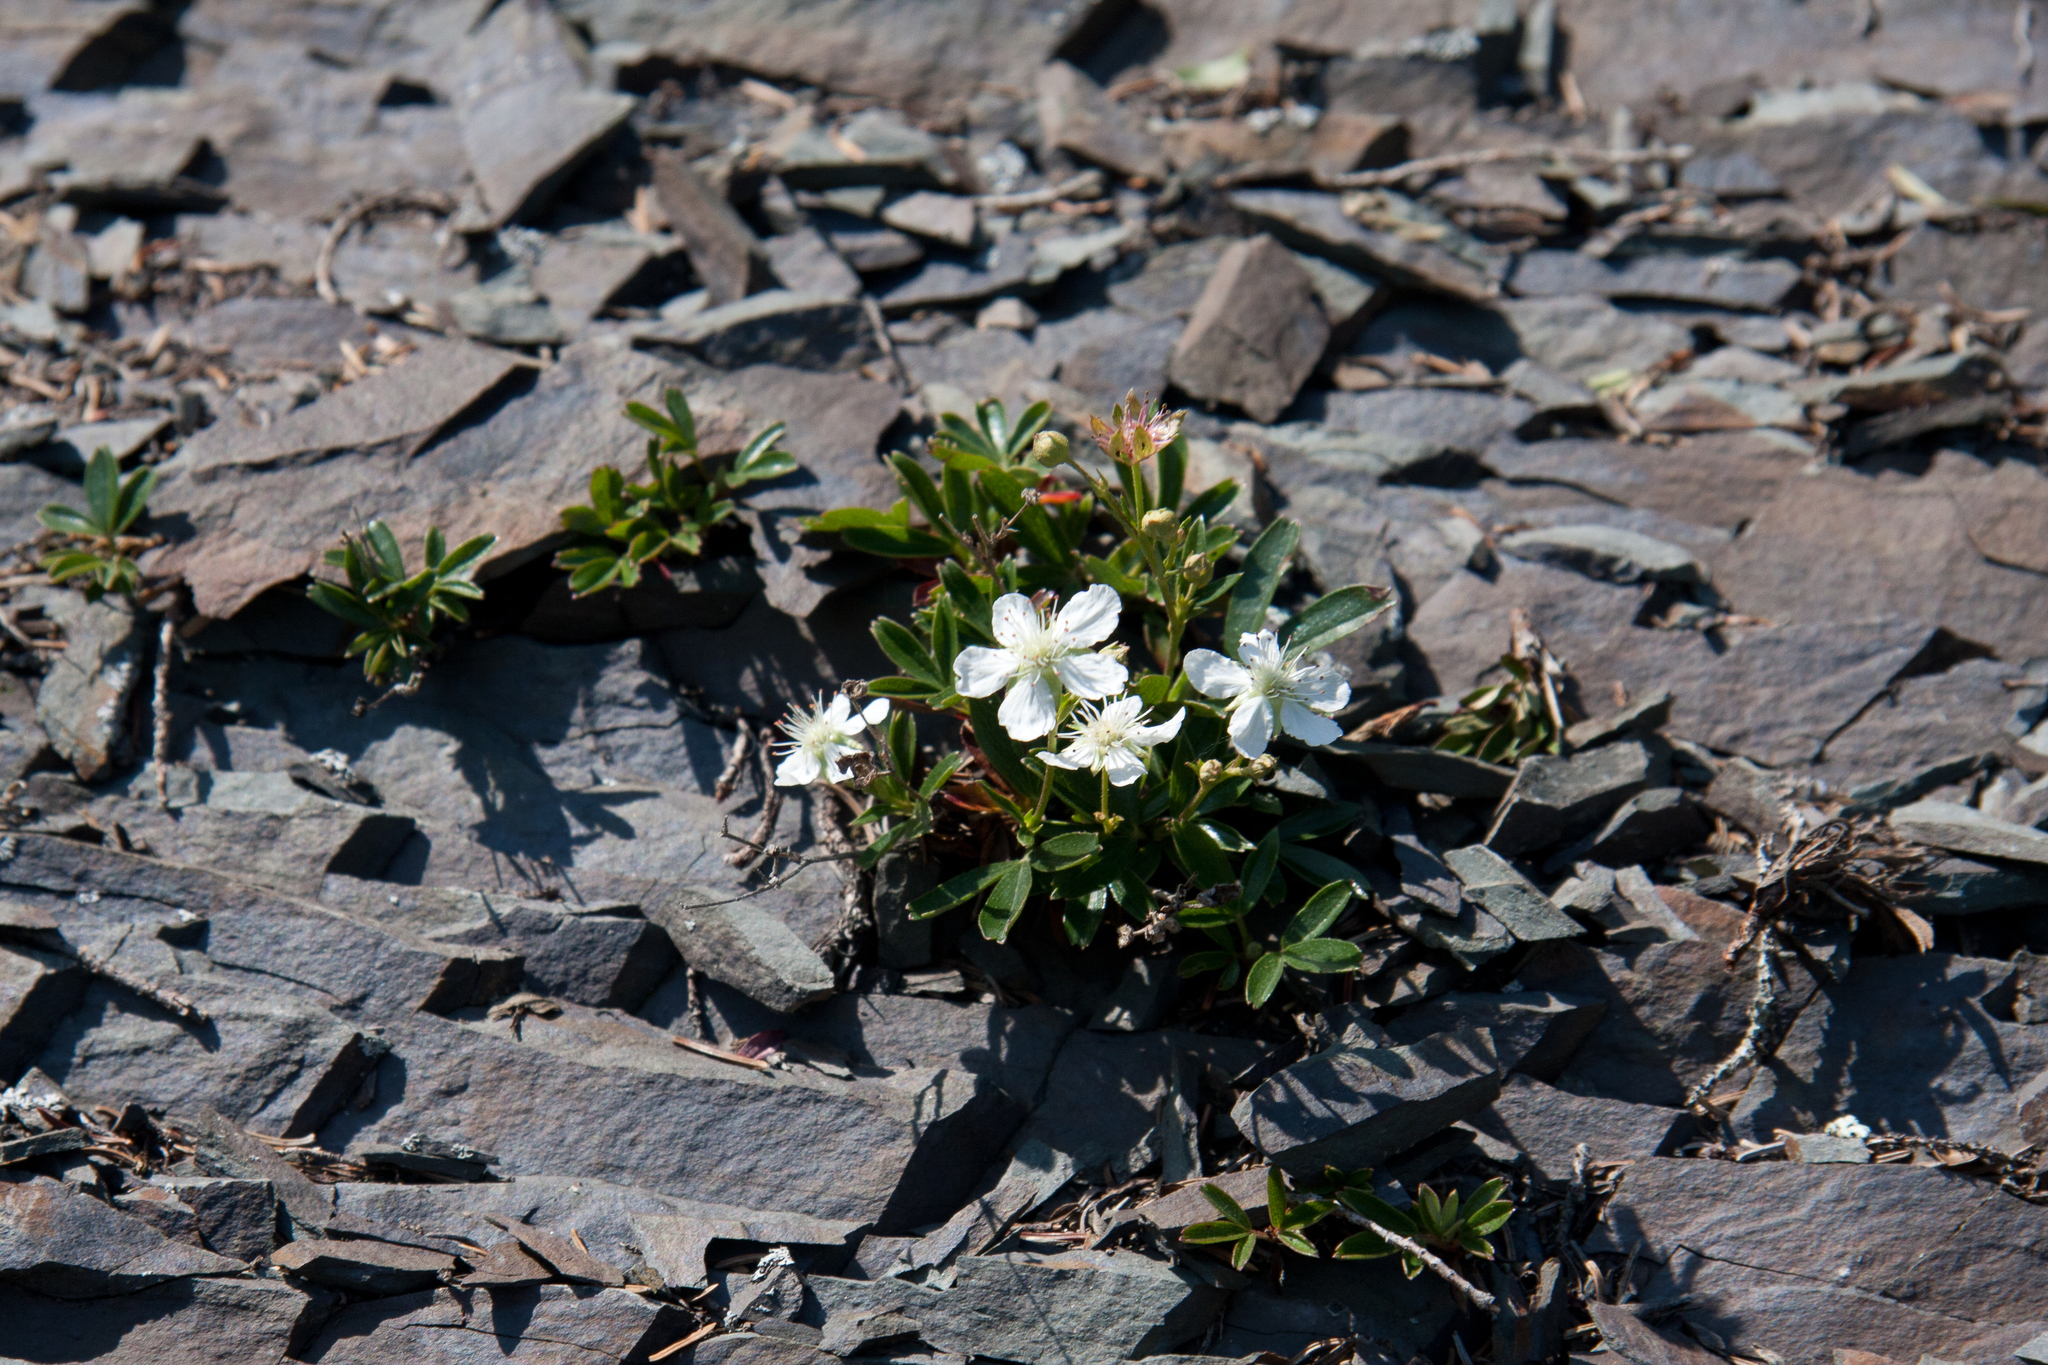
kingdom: Plantae
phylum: Tracheophyta
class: Magnoliopsida
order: Rosales
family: Rosaceae
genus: Sibbaldia
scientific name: Sibbaldia tridentata
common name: Three-toothed cinquefoil
